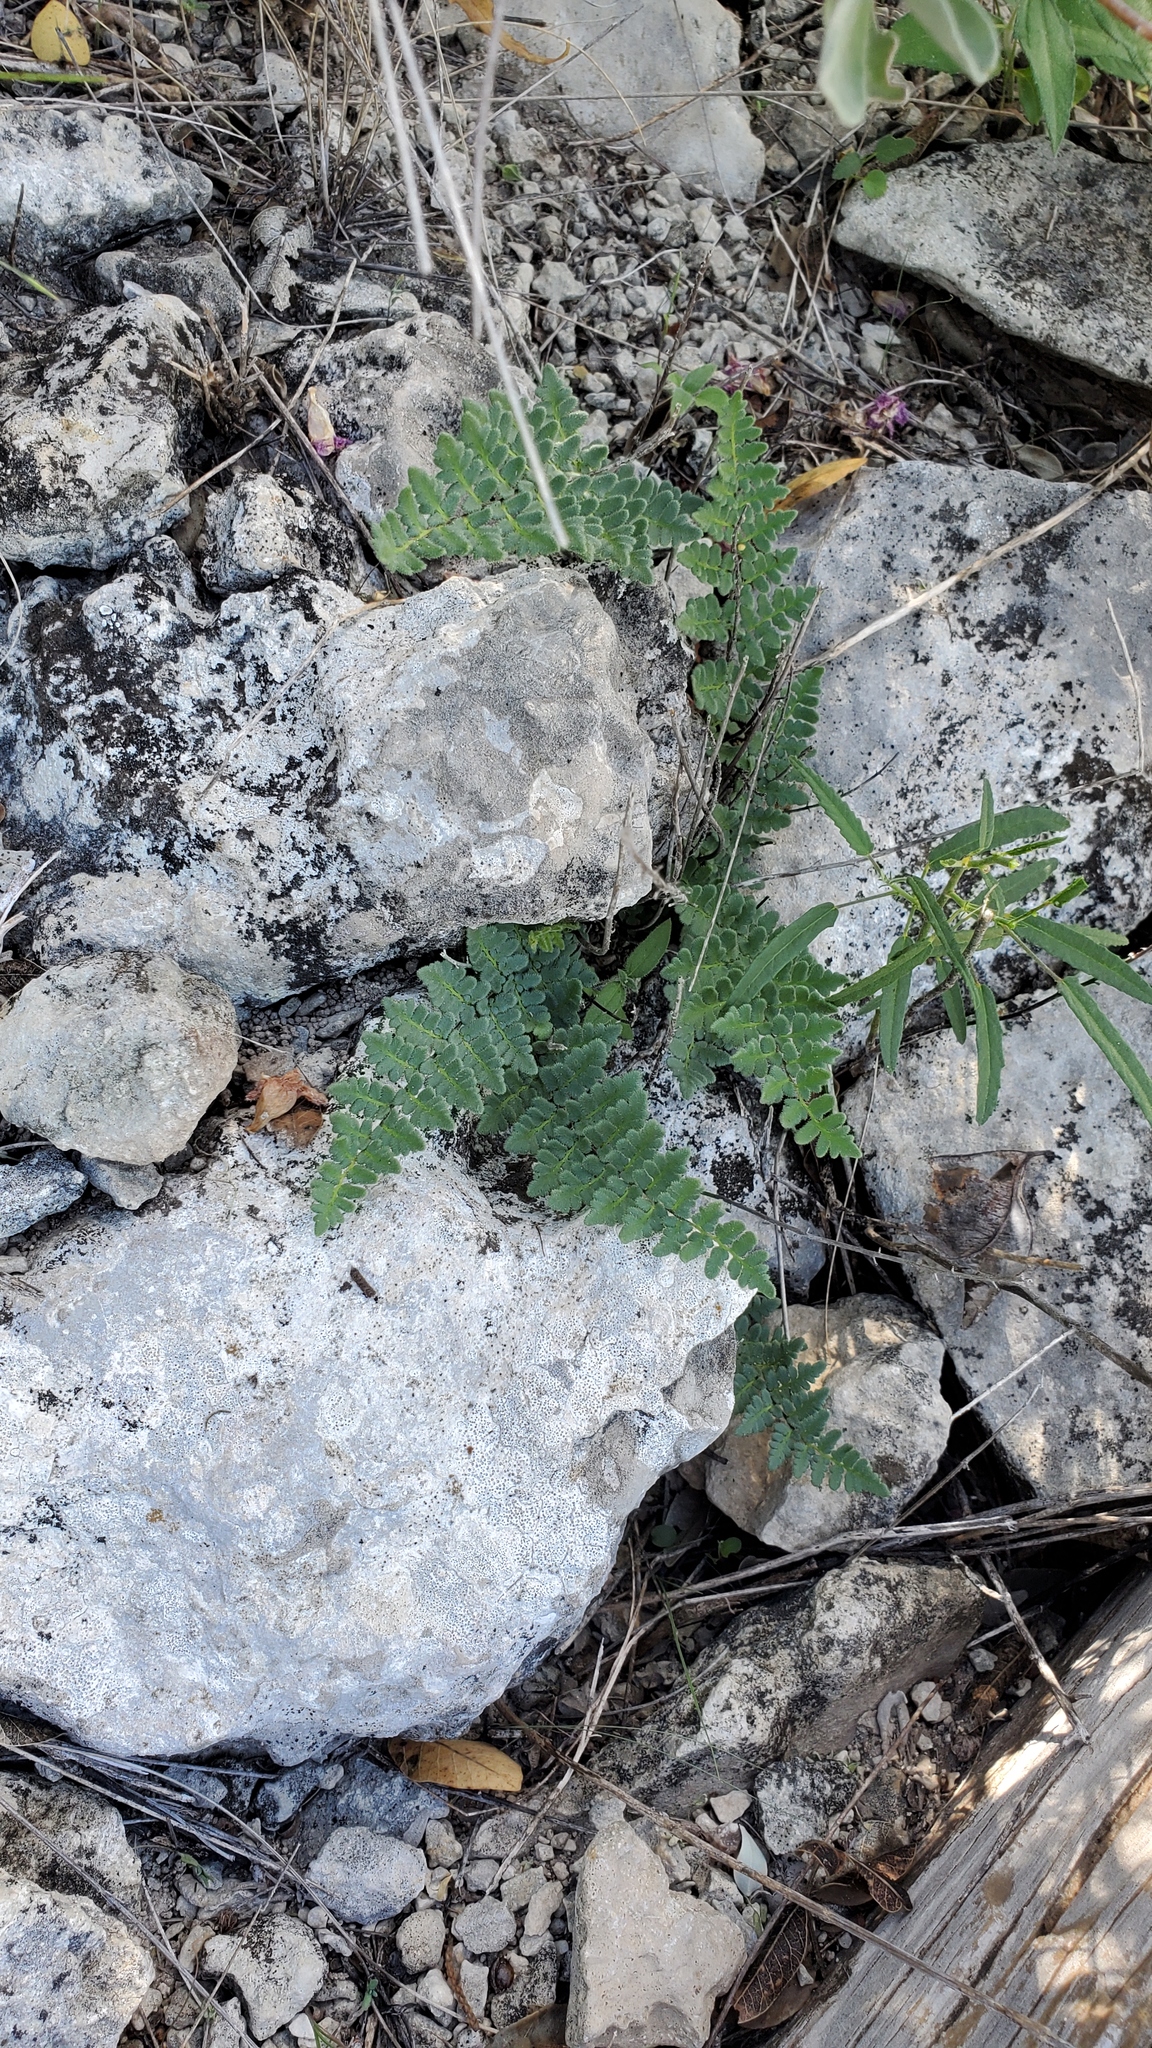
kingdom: Plantae
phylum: Tracheophyta
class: Polypodiopsida
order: Polypodiales
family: Pteridaceae
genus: Myriopteris
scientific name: Myriopteris alabamensis
